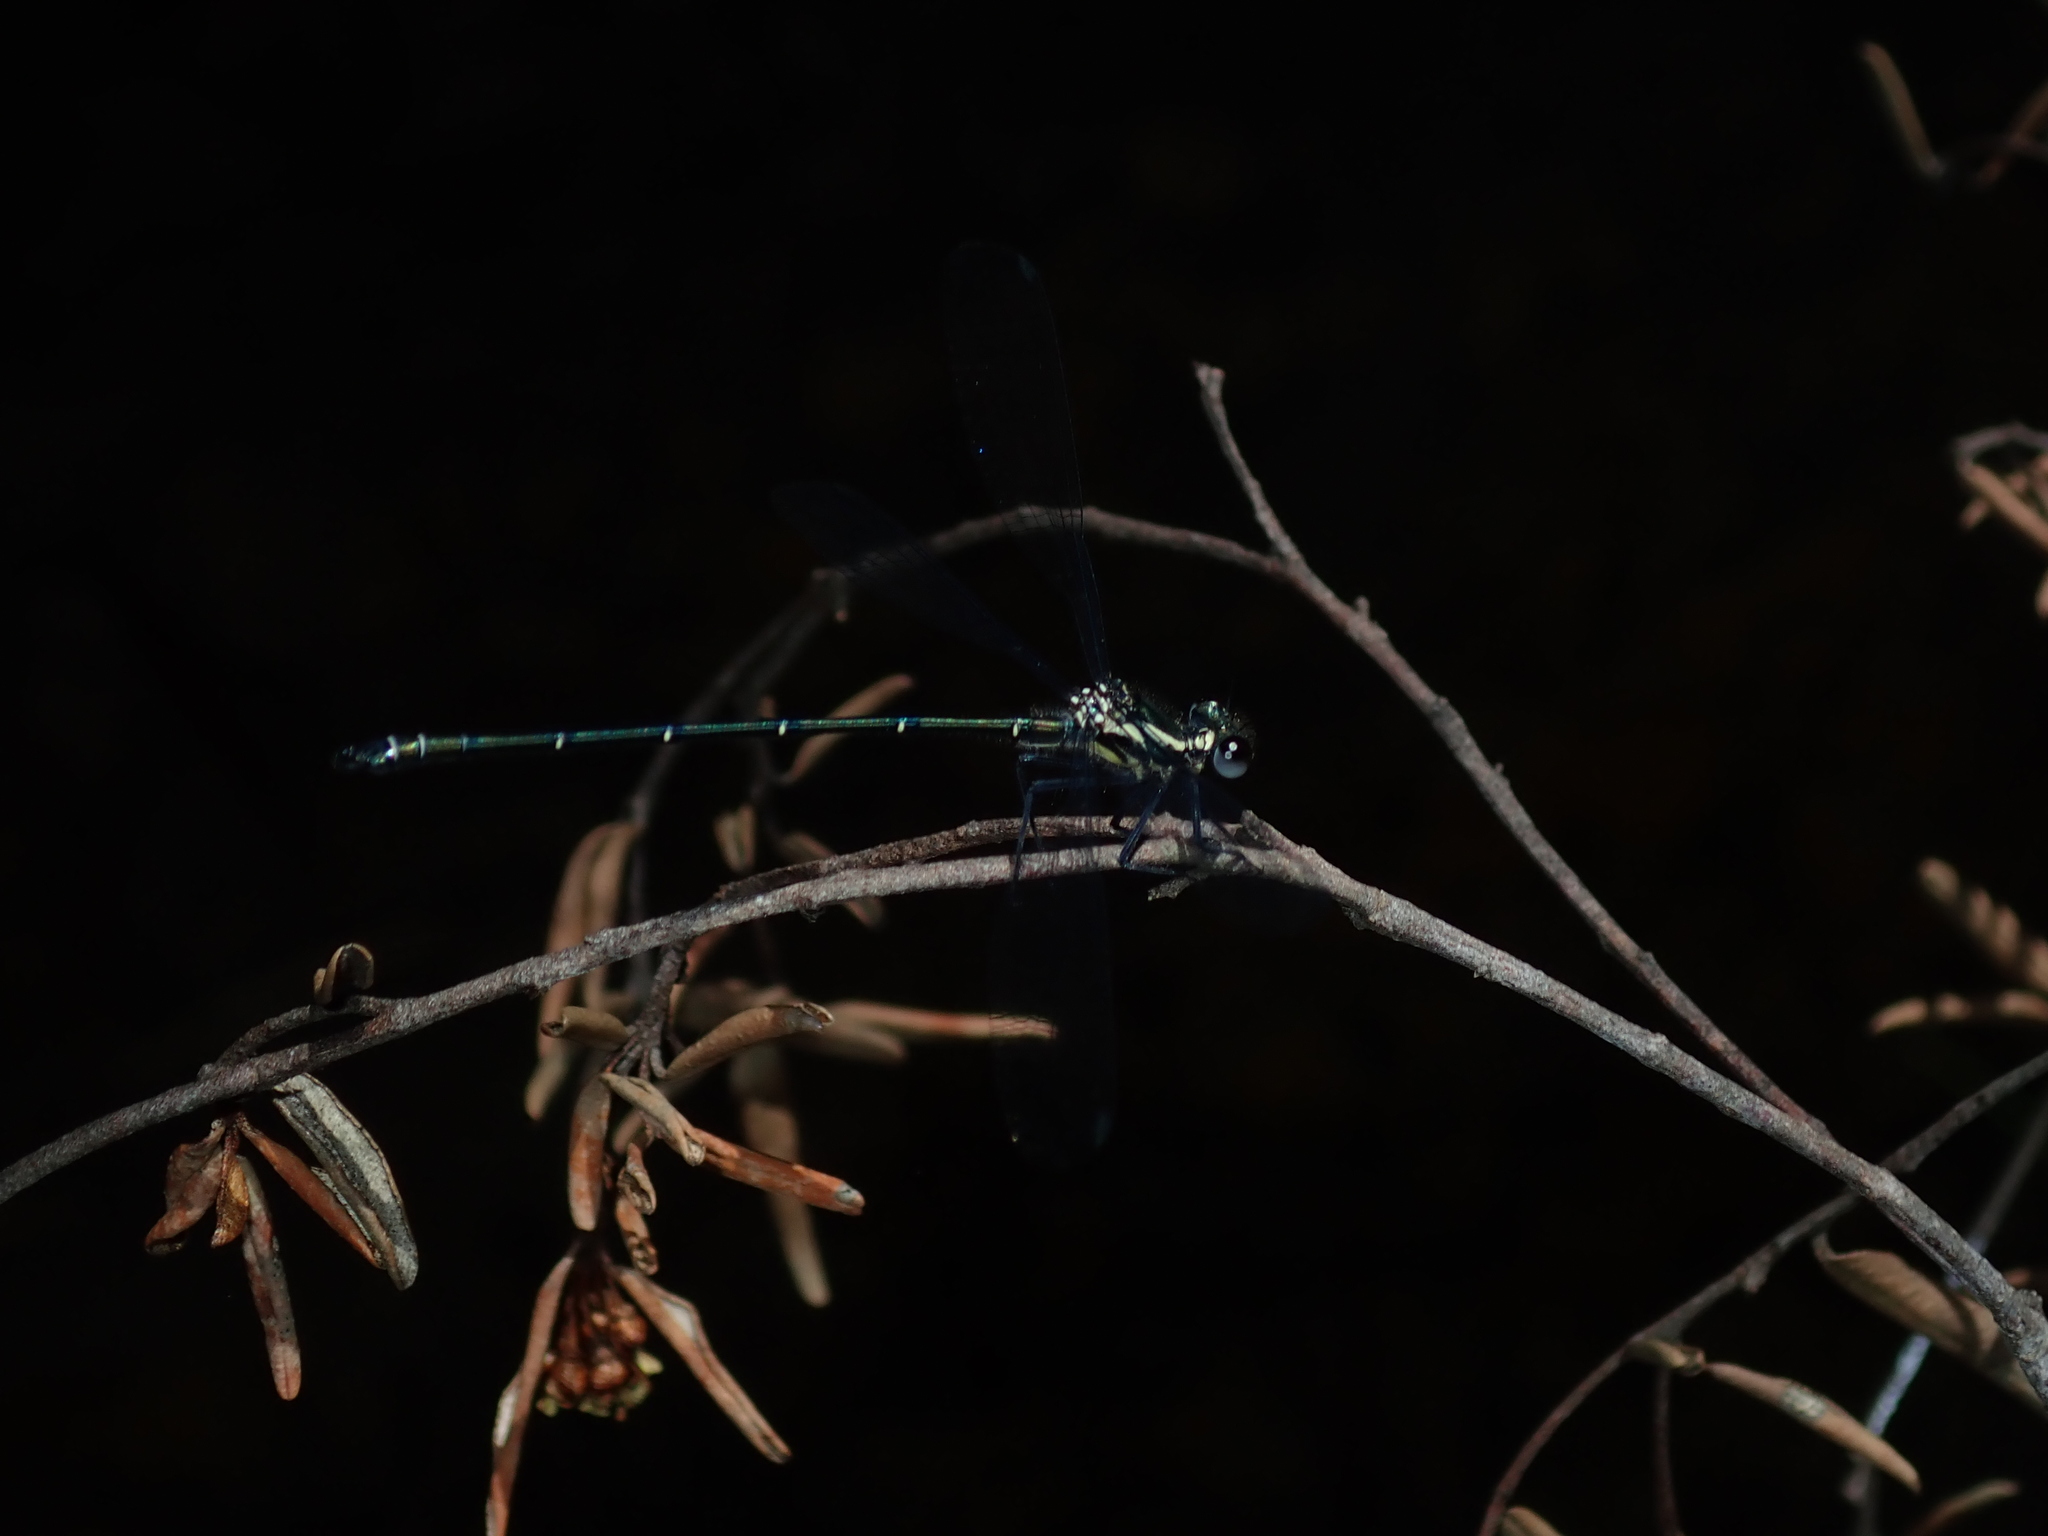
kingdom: Animalia
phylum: Arthropoda
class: Insecta
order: Odonata
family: Argiolestidae
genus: Austroargiolestes
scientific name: Austroargiolestes icteromelas
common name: Common flatwing
